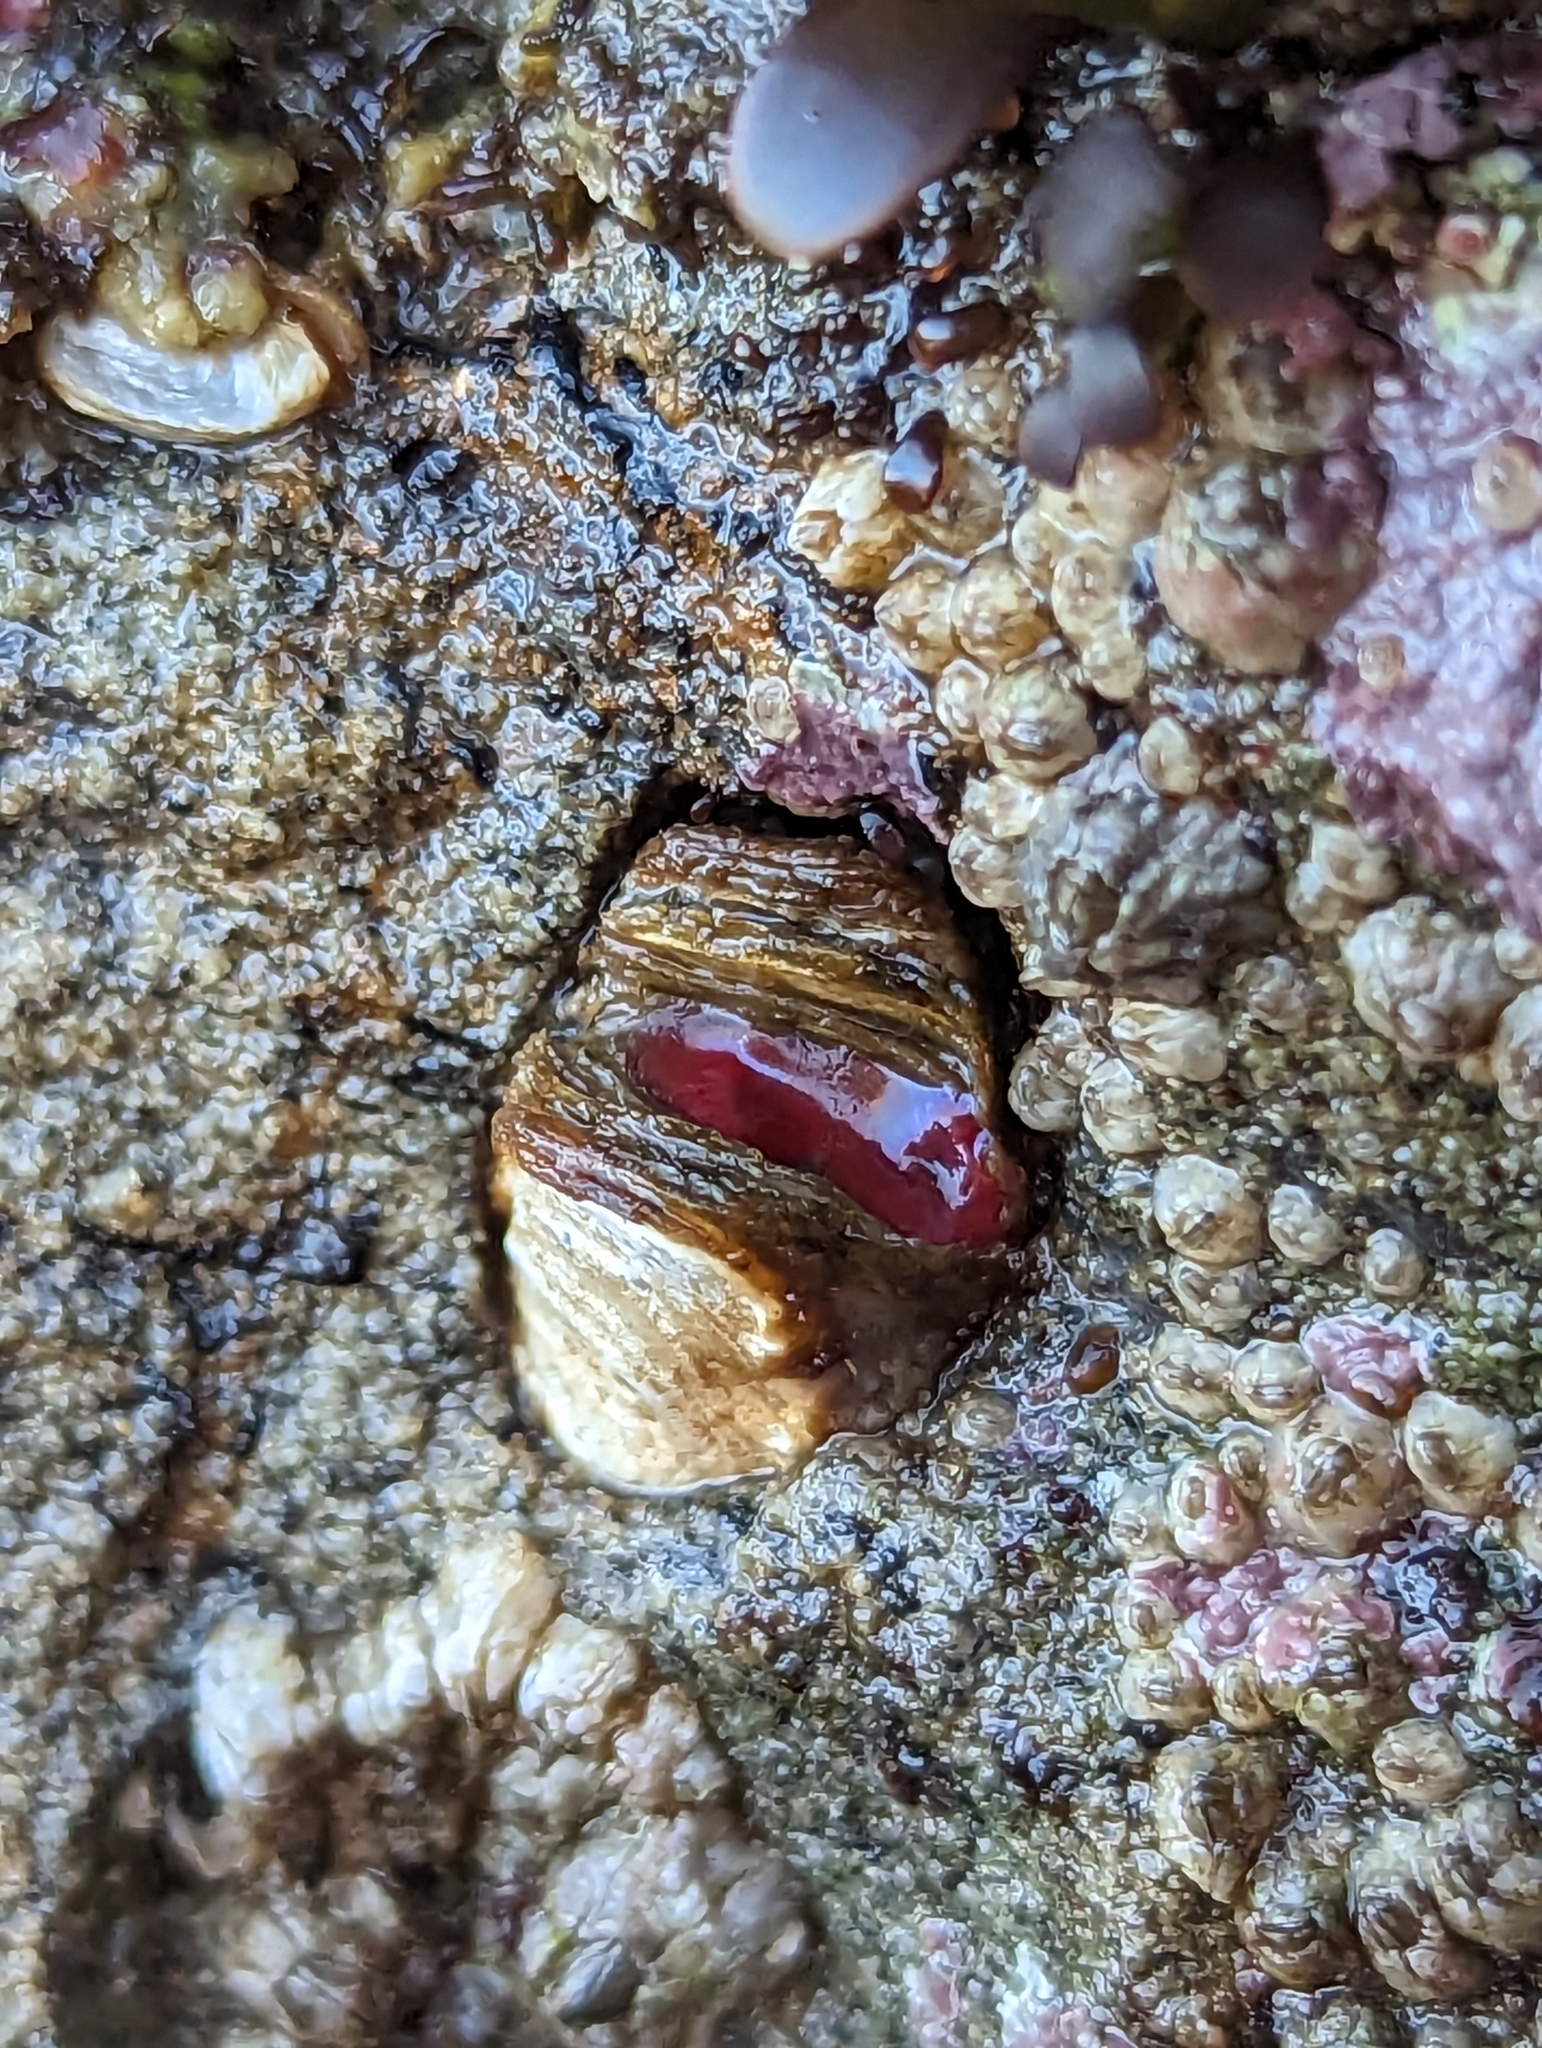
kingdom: Animalia
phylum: Mollusca
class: Bivalvia
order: Adapedonta
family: Hiatellidae
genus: Hiatella
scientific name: Hiatella arctica
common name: Arctic hiatella
